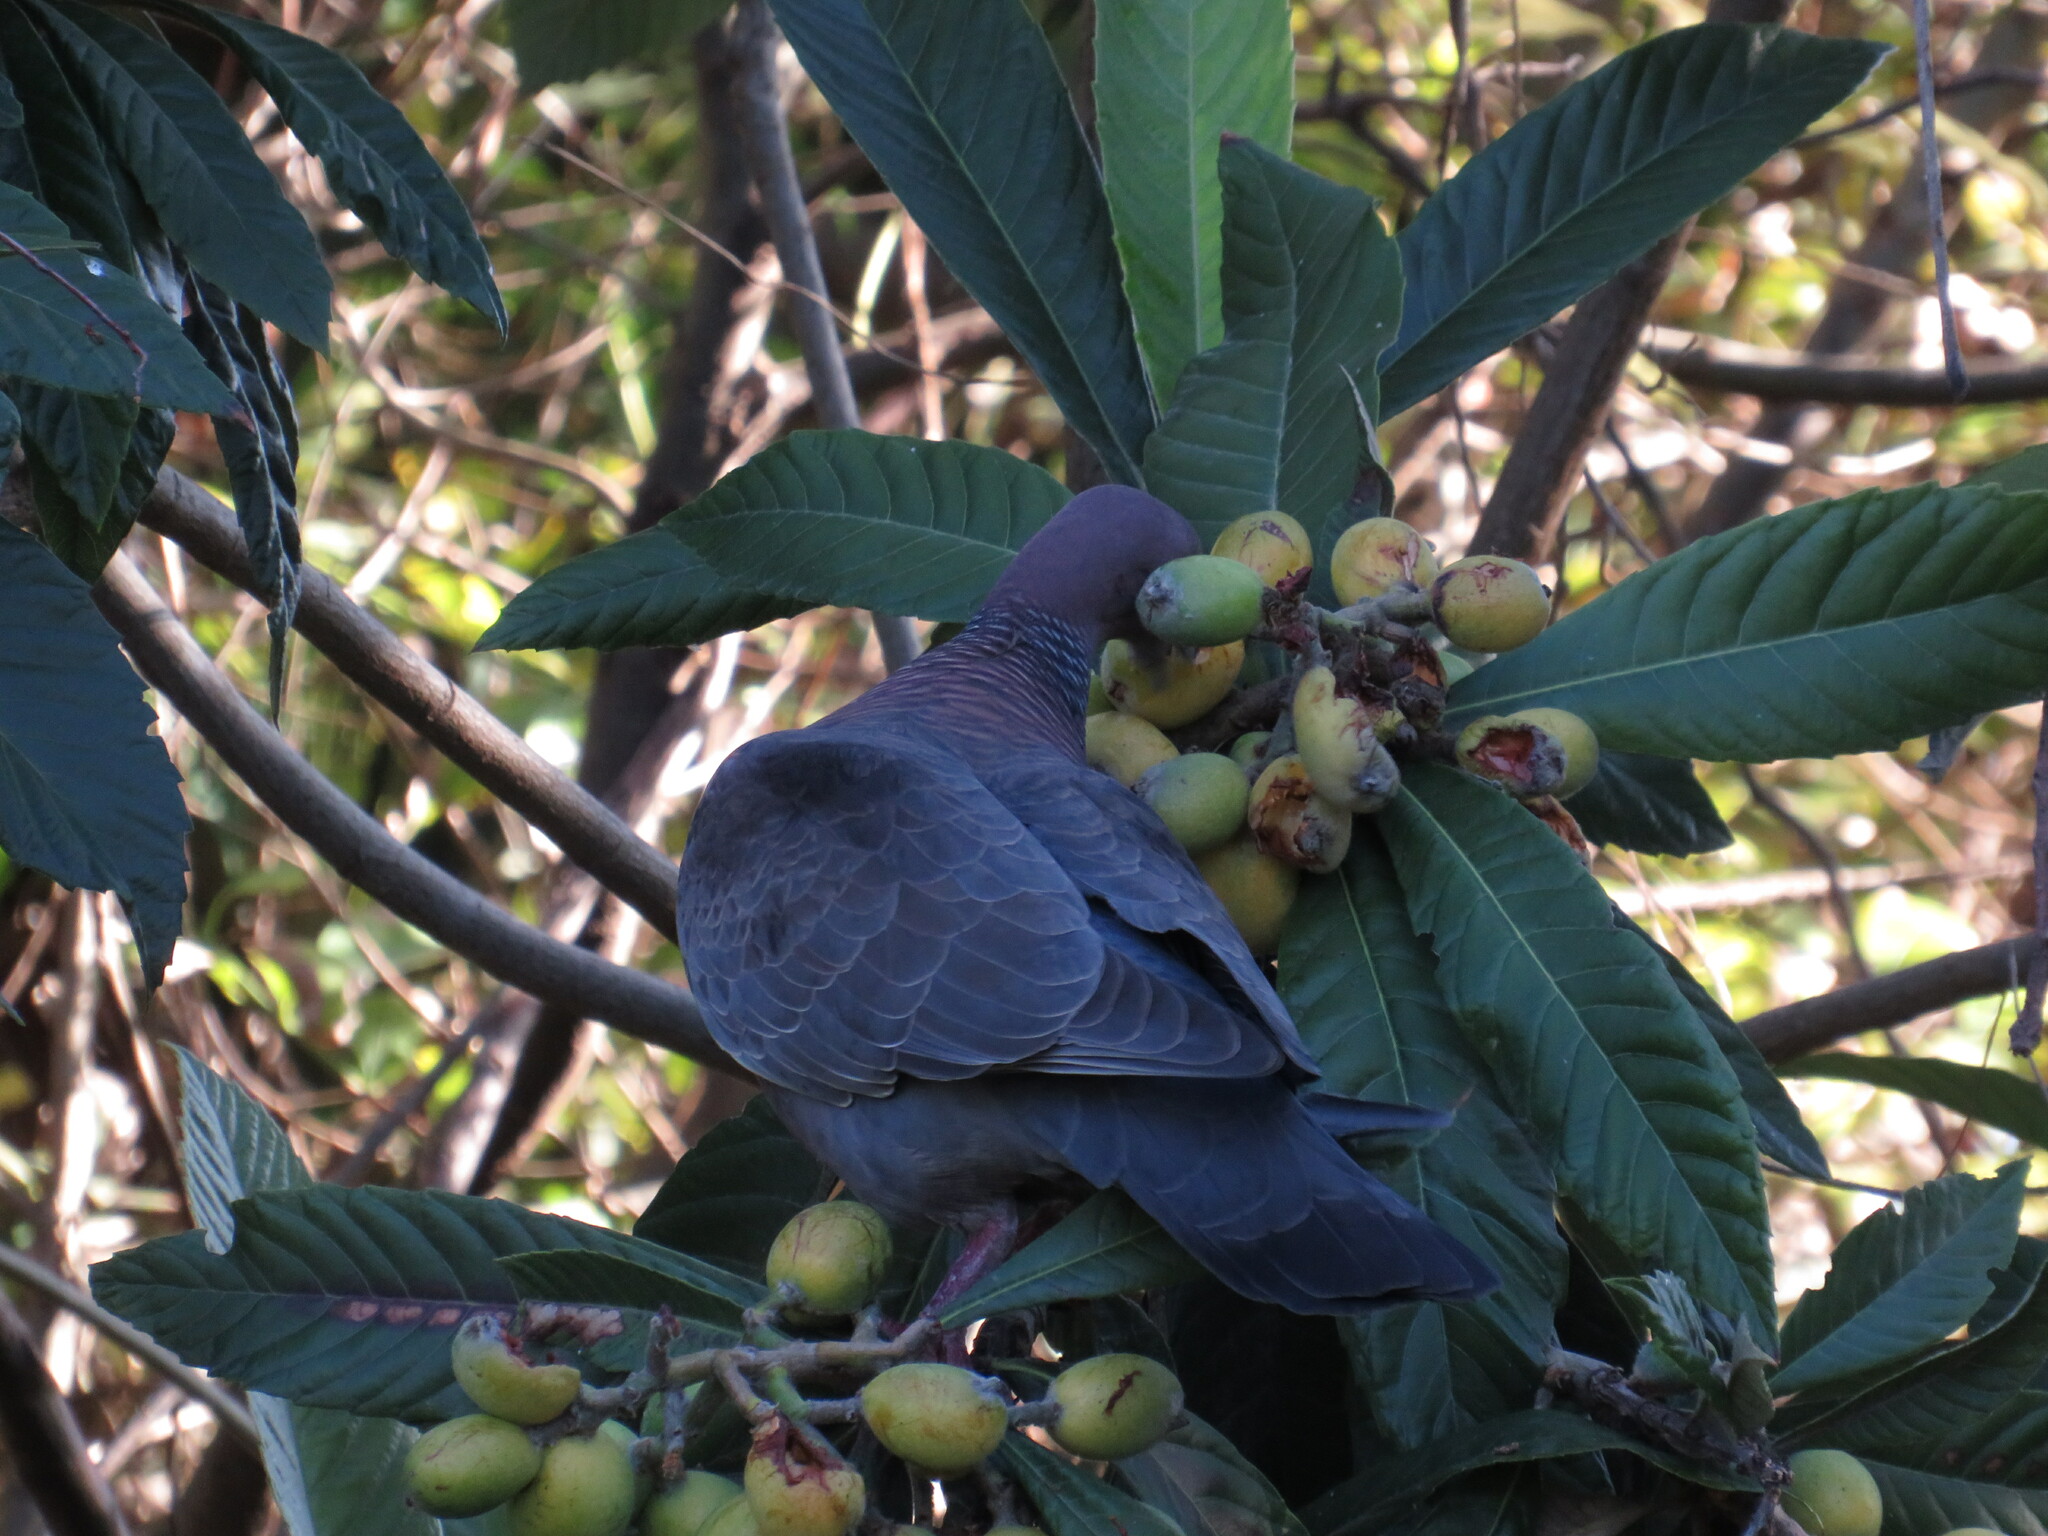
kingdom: Animalia
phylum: Chordata
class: Aves
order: Columbiformes
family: Columbidae
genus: Patagioenas
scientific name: Patagioenas picazuro
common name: Picazuro pigeon
